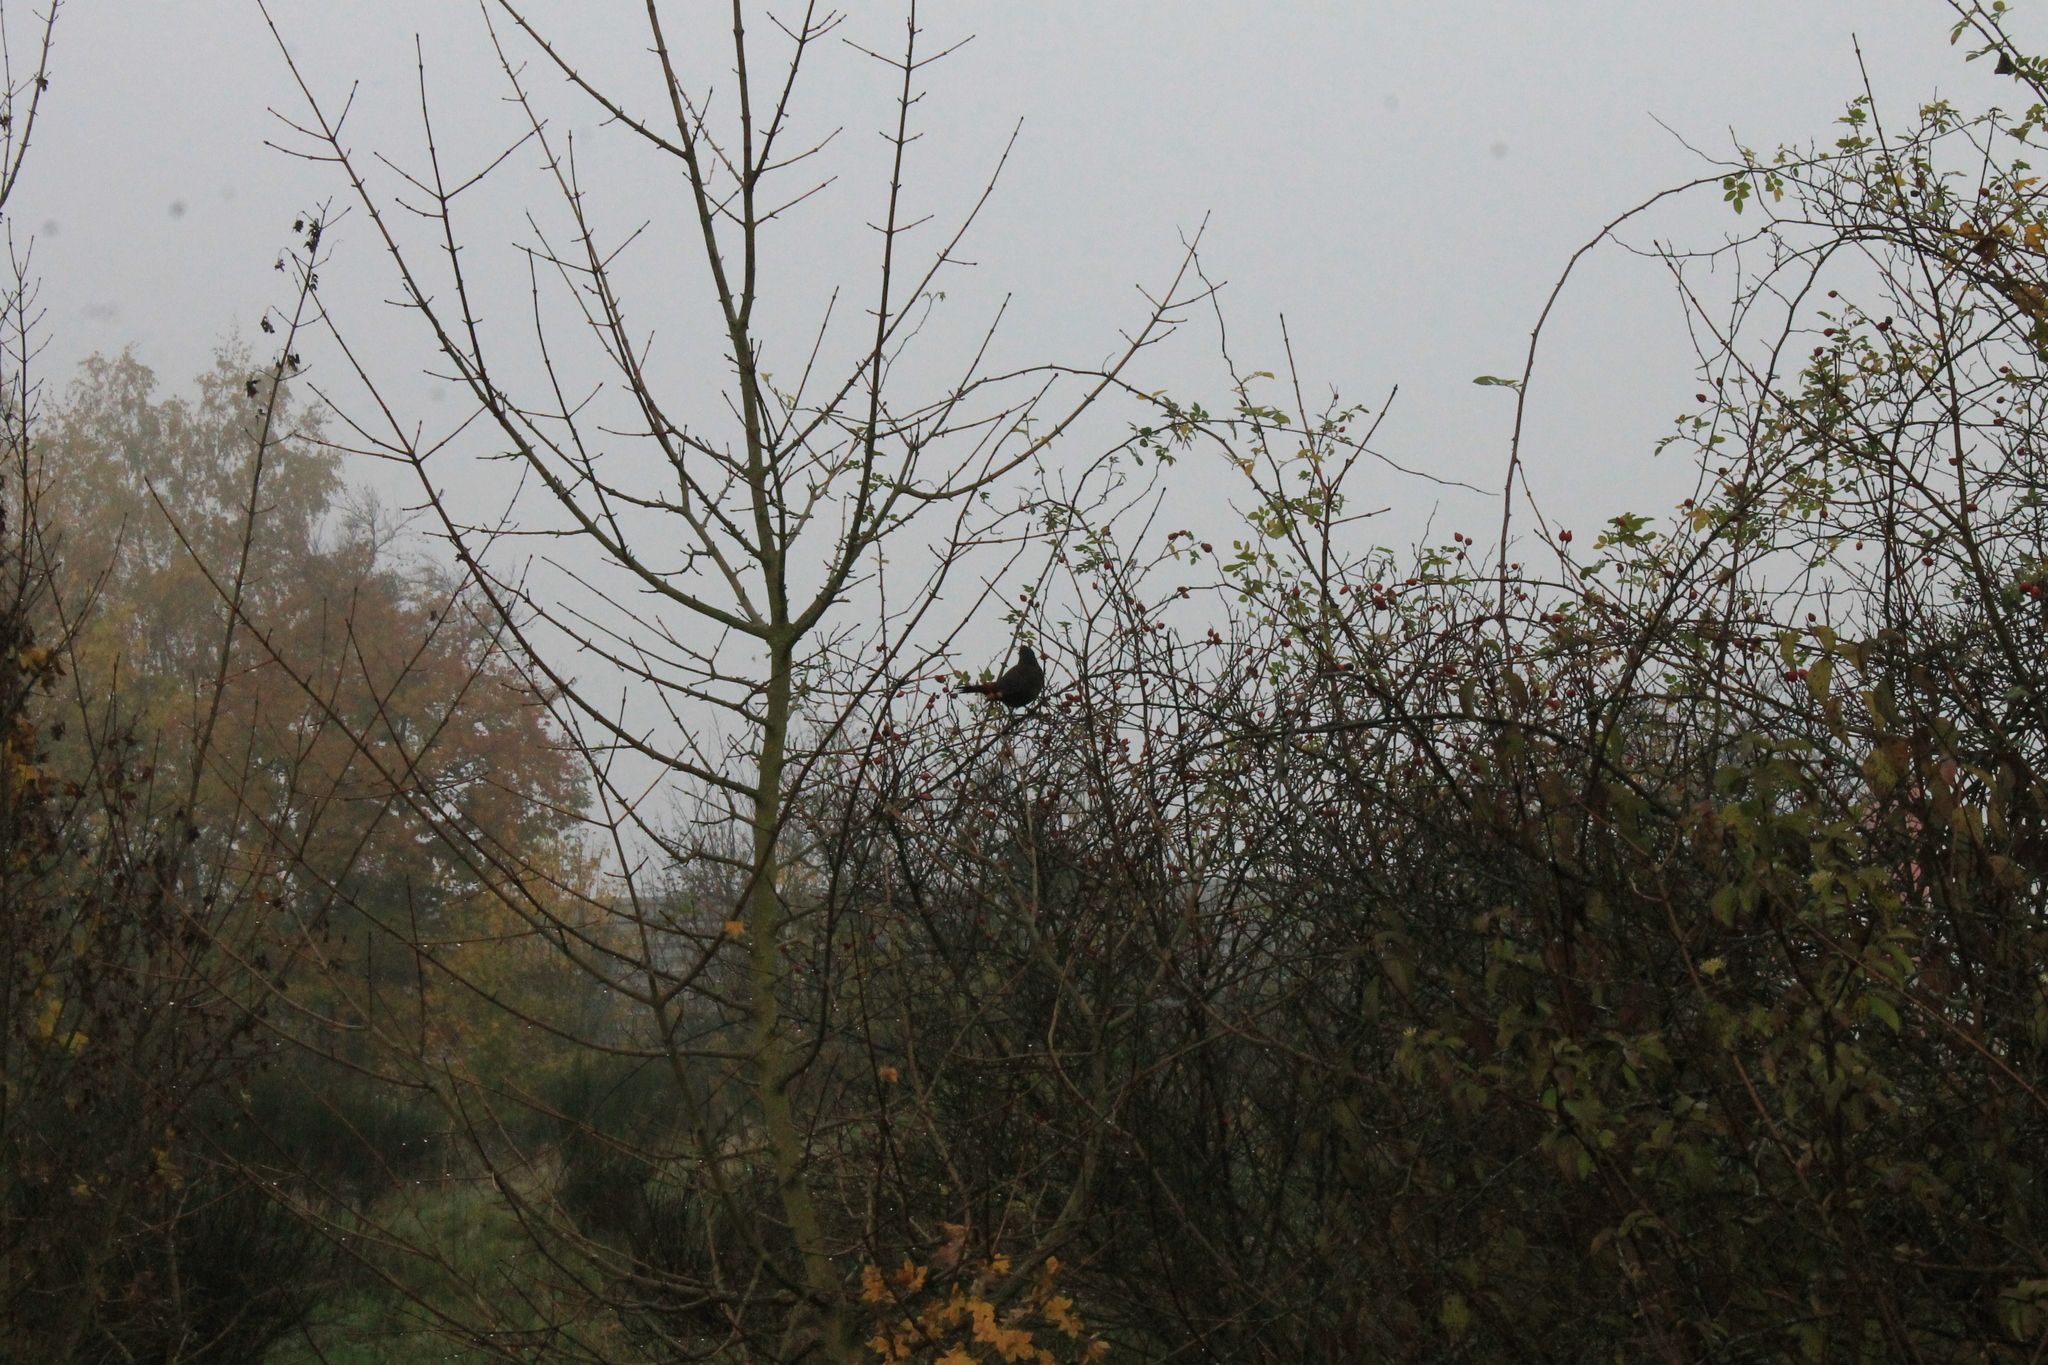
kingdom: Animalia
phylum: Chordata
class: Aves
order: Passeriformes
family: Turdidae
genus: Turdus
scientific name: Turdus merula
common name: Common blackbird
